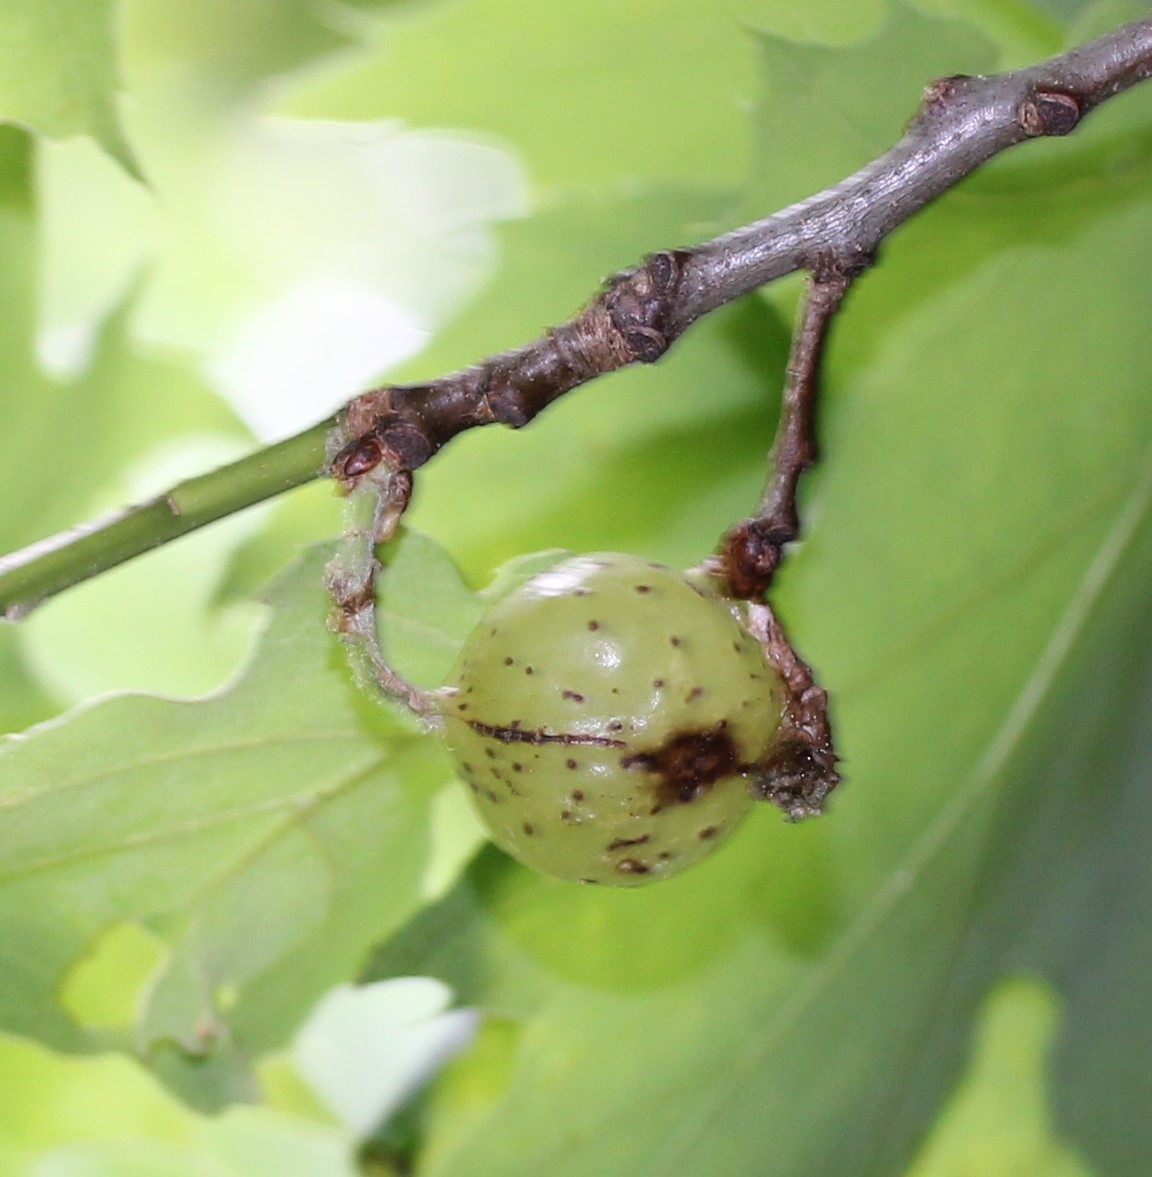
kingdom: Animalia
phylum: Arthropoda
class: Insecta
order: Hymenoptera
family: Cynipidae
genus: Amphibolips
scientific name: Amphibolips
